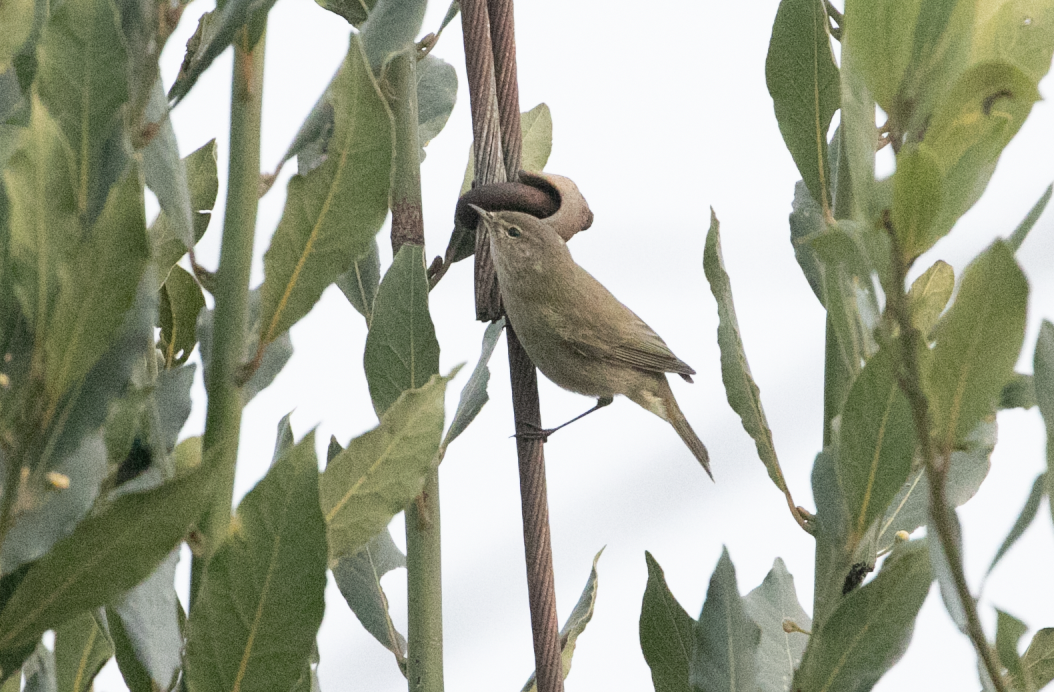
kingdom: Animalia
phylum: Chordata
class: Aves
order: Passeriformes
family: Phylloscopidae
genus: Phylloscopus
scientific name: Phylloscopus collybita
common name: Common chiffchaff
